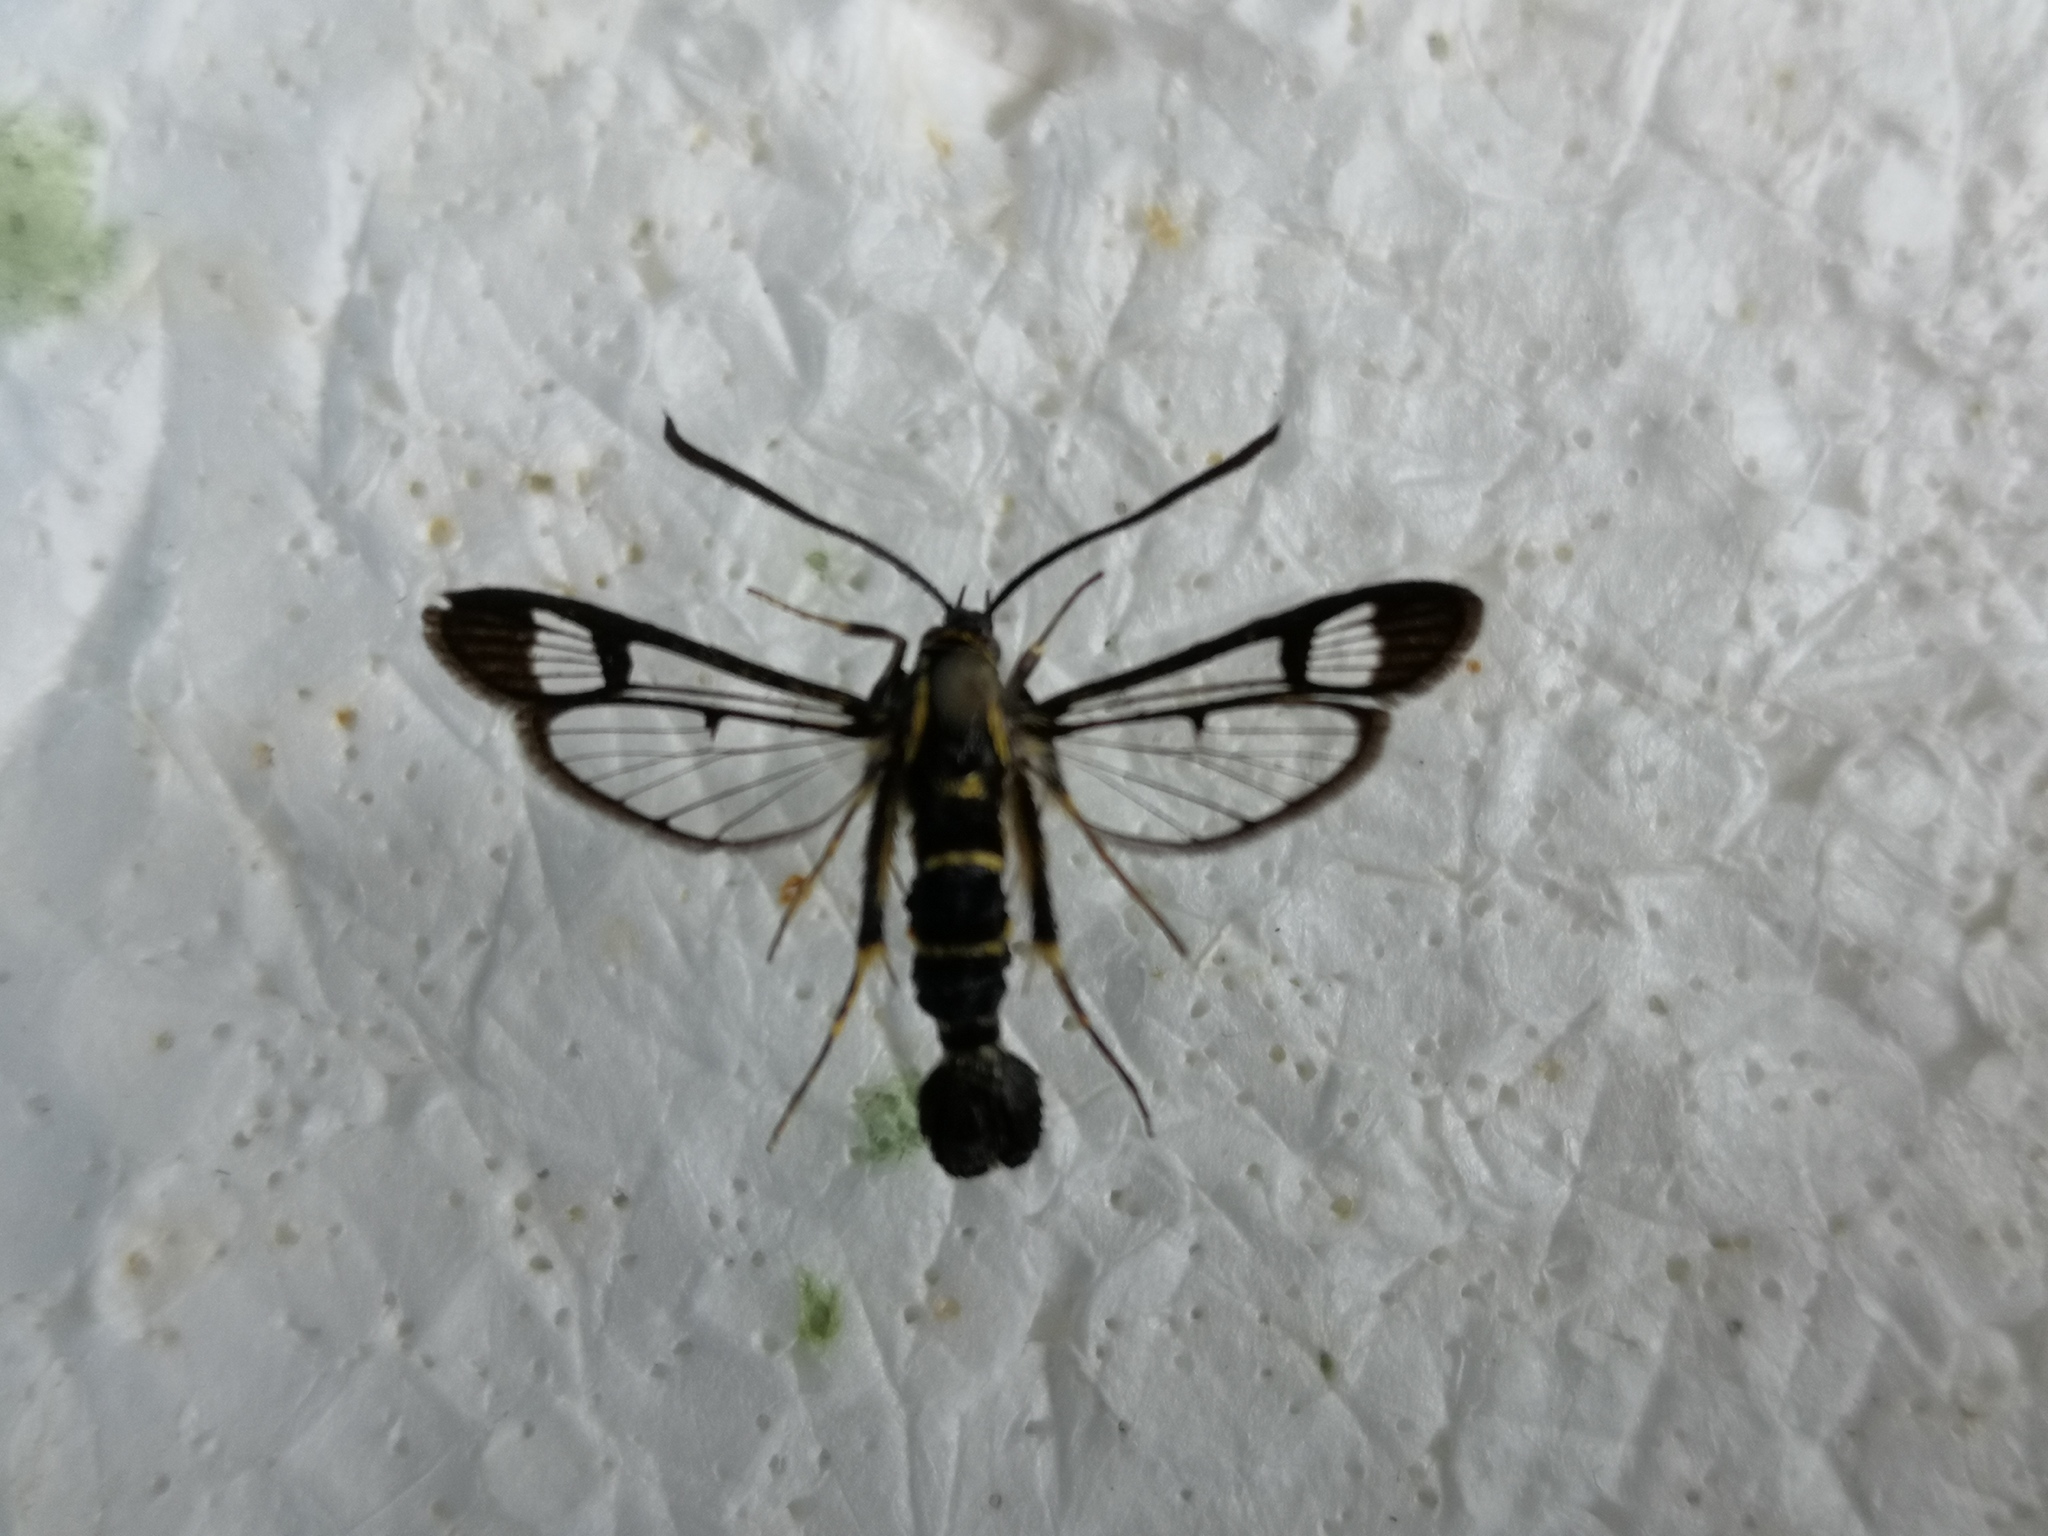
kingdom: Animalia
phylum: Arthropoda
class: Insecta
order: Lepidoptera
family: Sesiidae
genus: Synanthedon
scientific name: Synanthedon cephiformis
